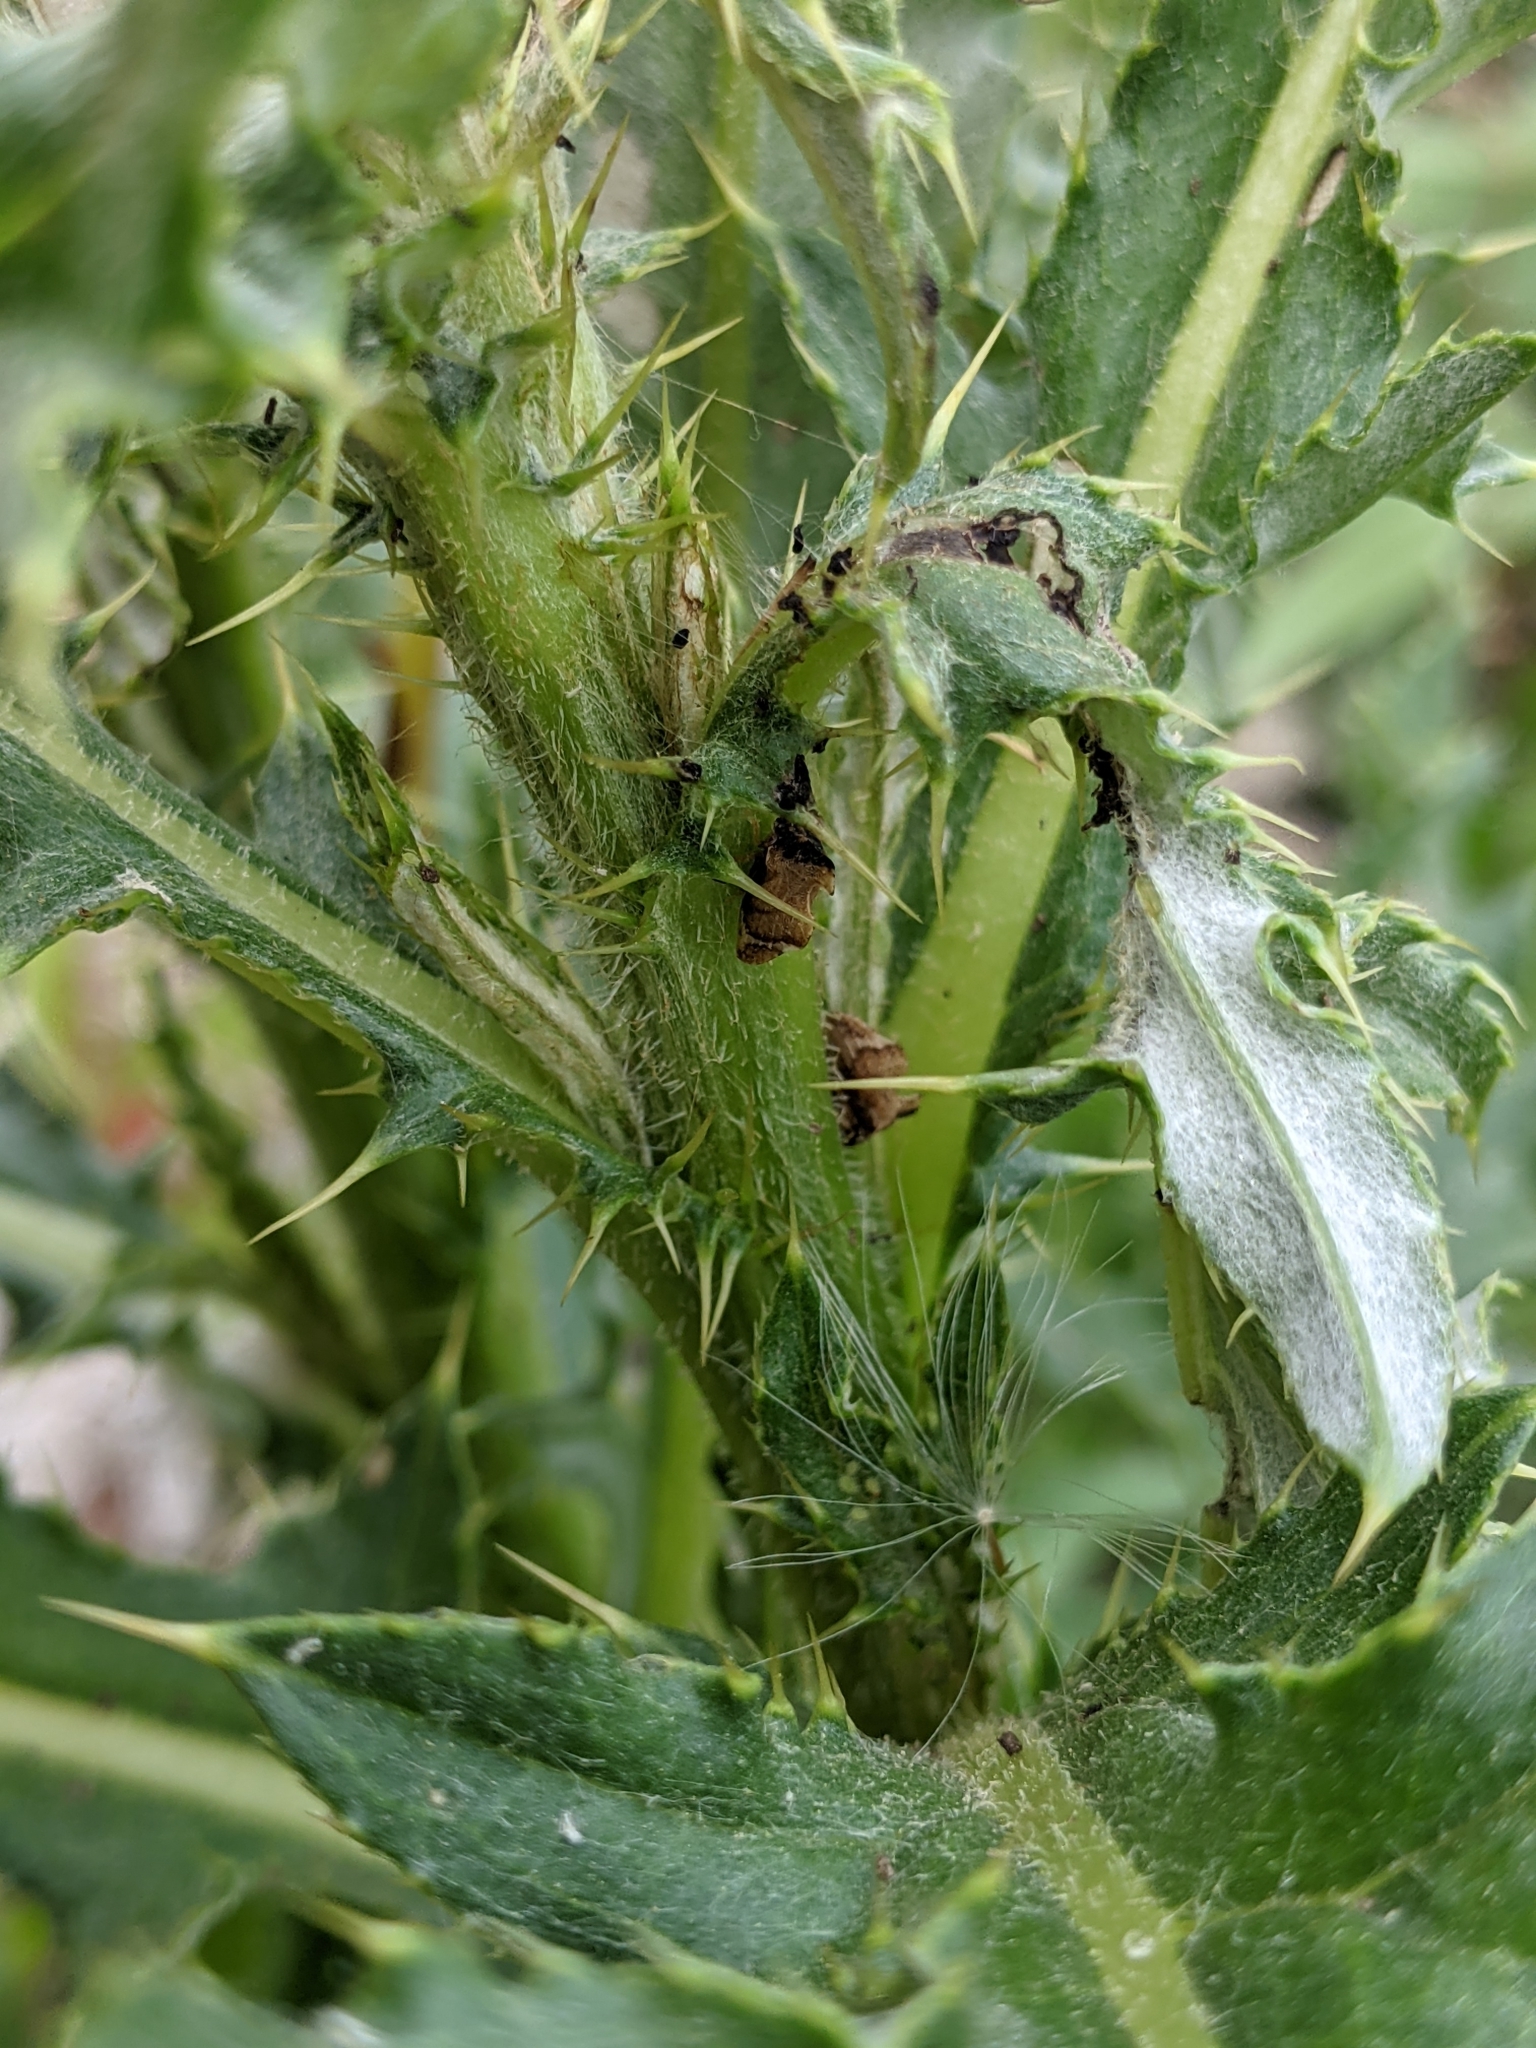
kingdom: Animalia
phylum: Arthropoda
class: Insecta
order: Hemiptera
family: Membracidae
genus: Entylia
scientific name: Entylia carinata
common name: Keeled treehopper
